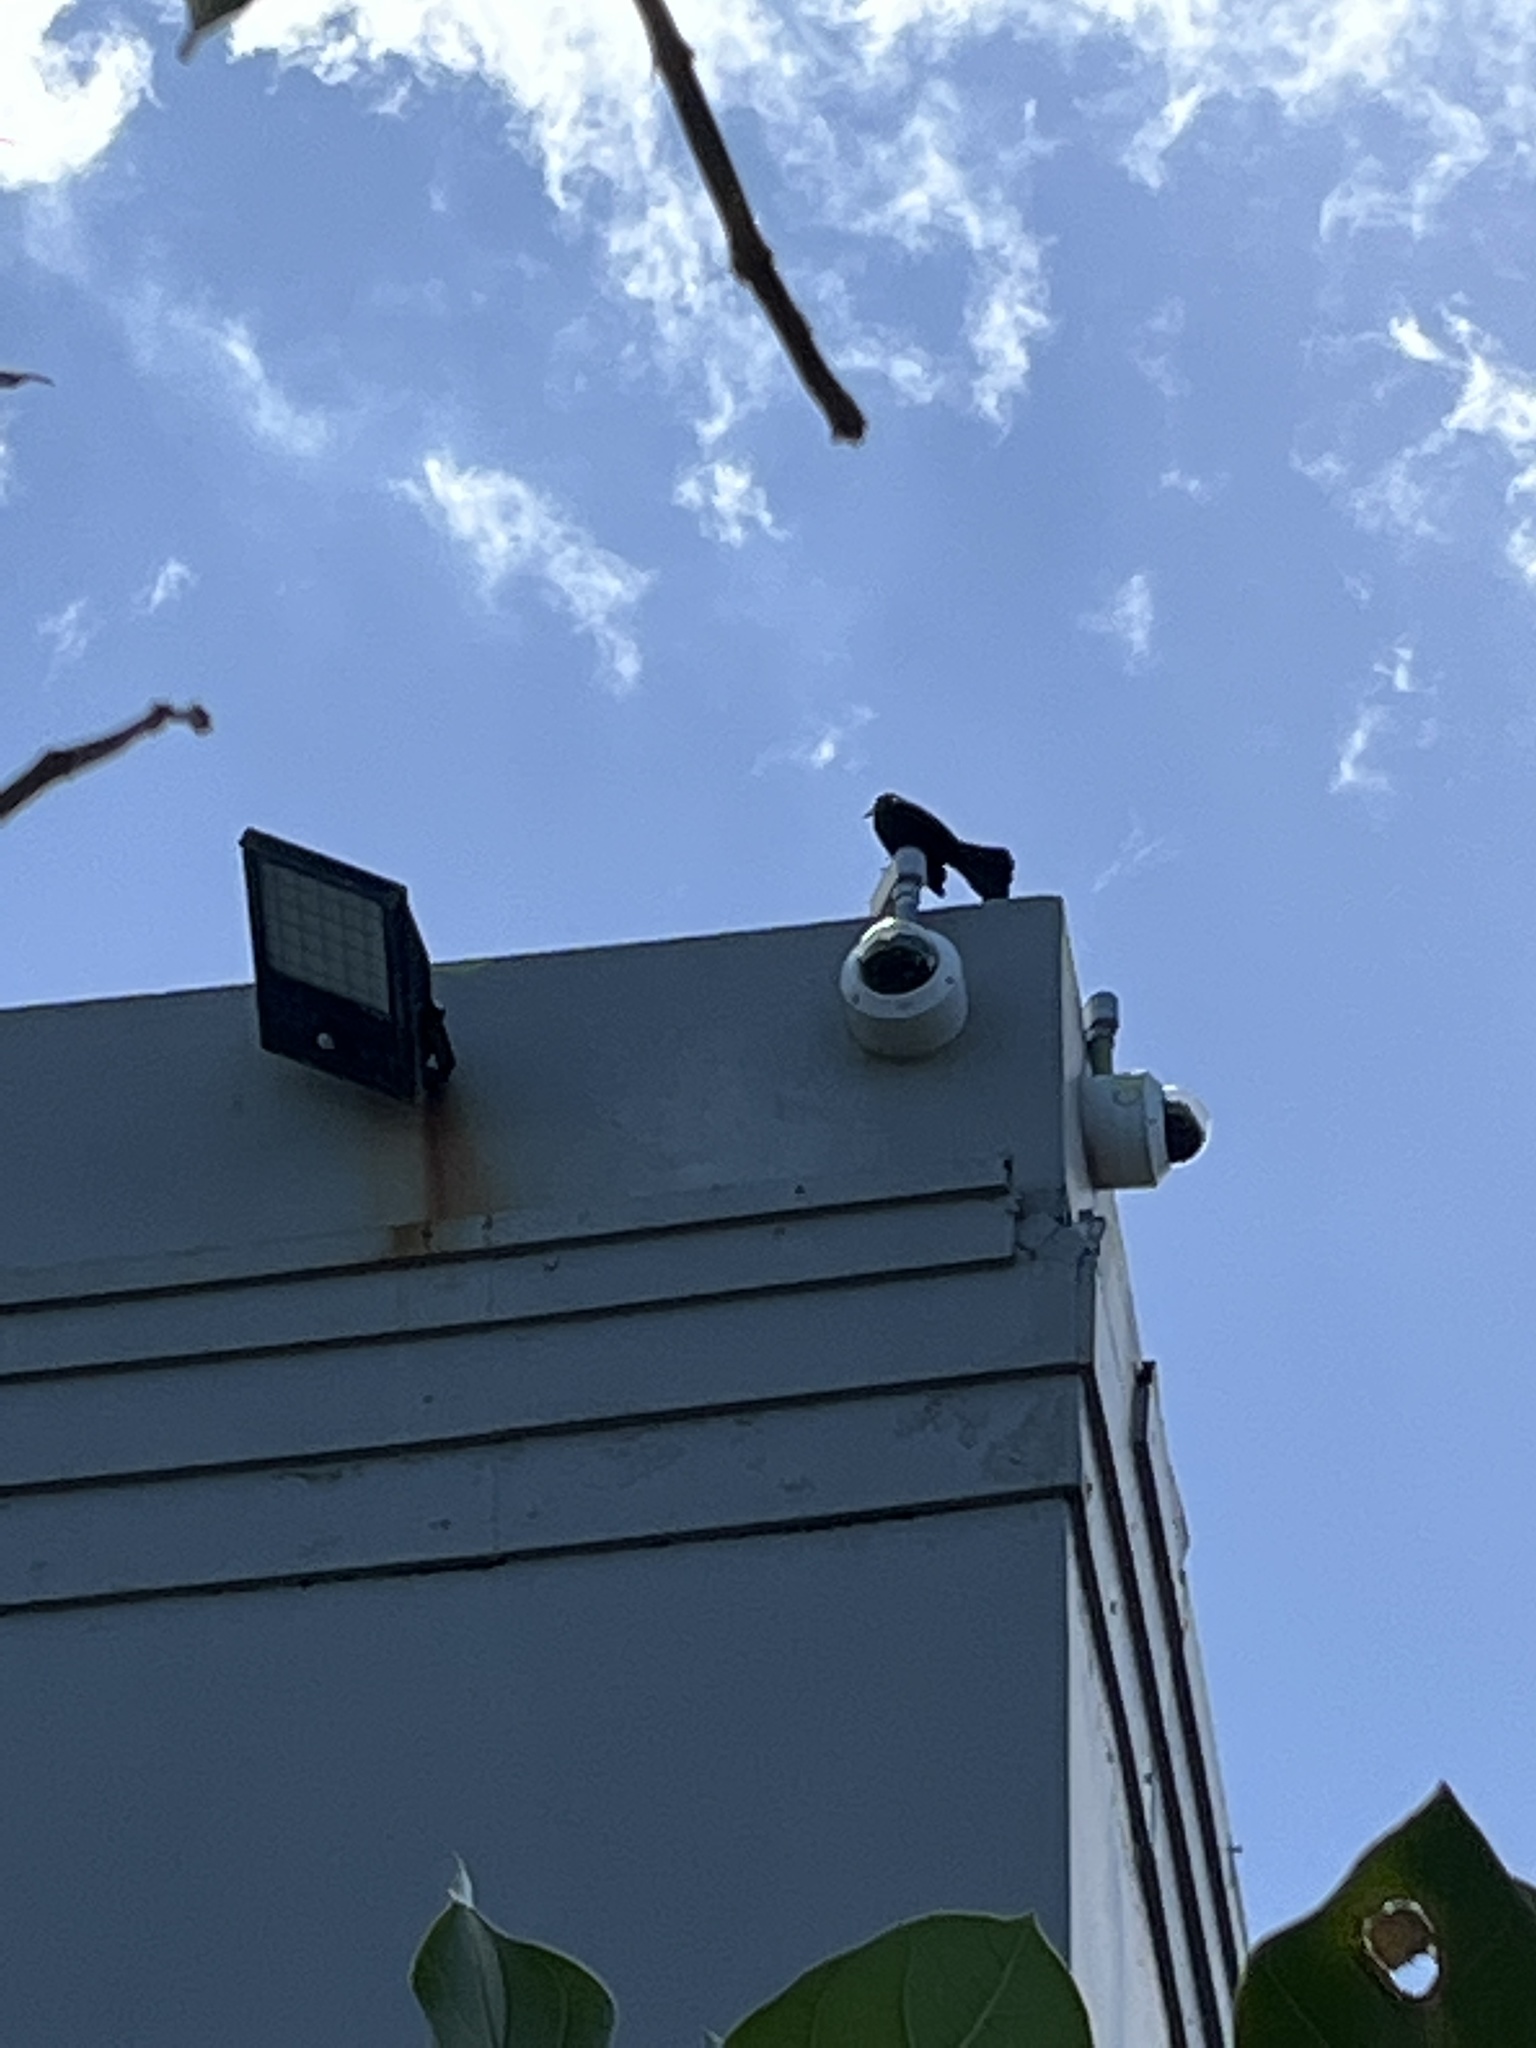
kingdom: Animalia
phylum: Chordata
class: Aves
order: Passeriformes
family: Icteridae
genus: Quiscalus
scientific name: Quiscalus niger
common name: Greater antillean grackle
